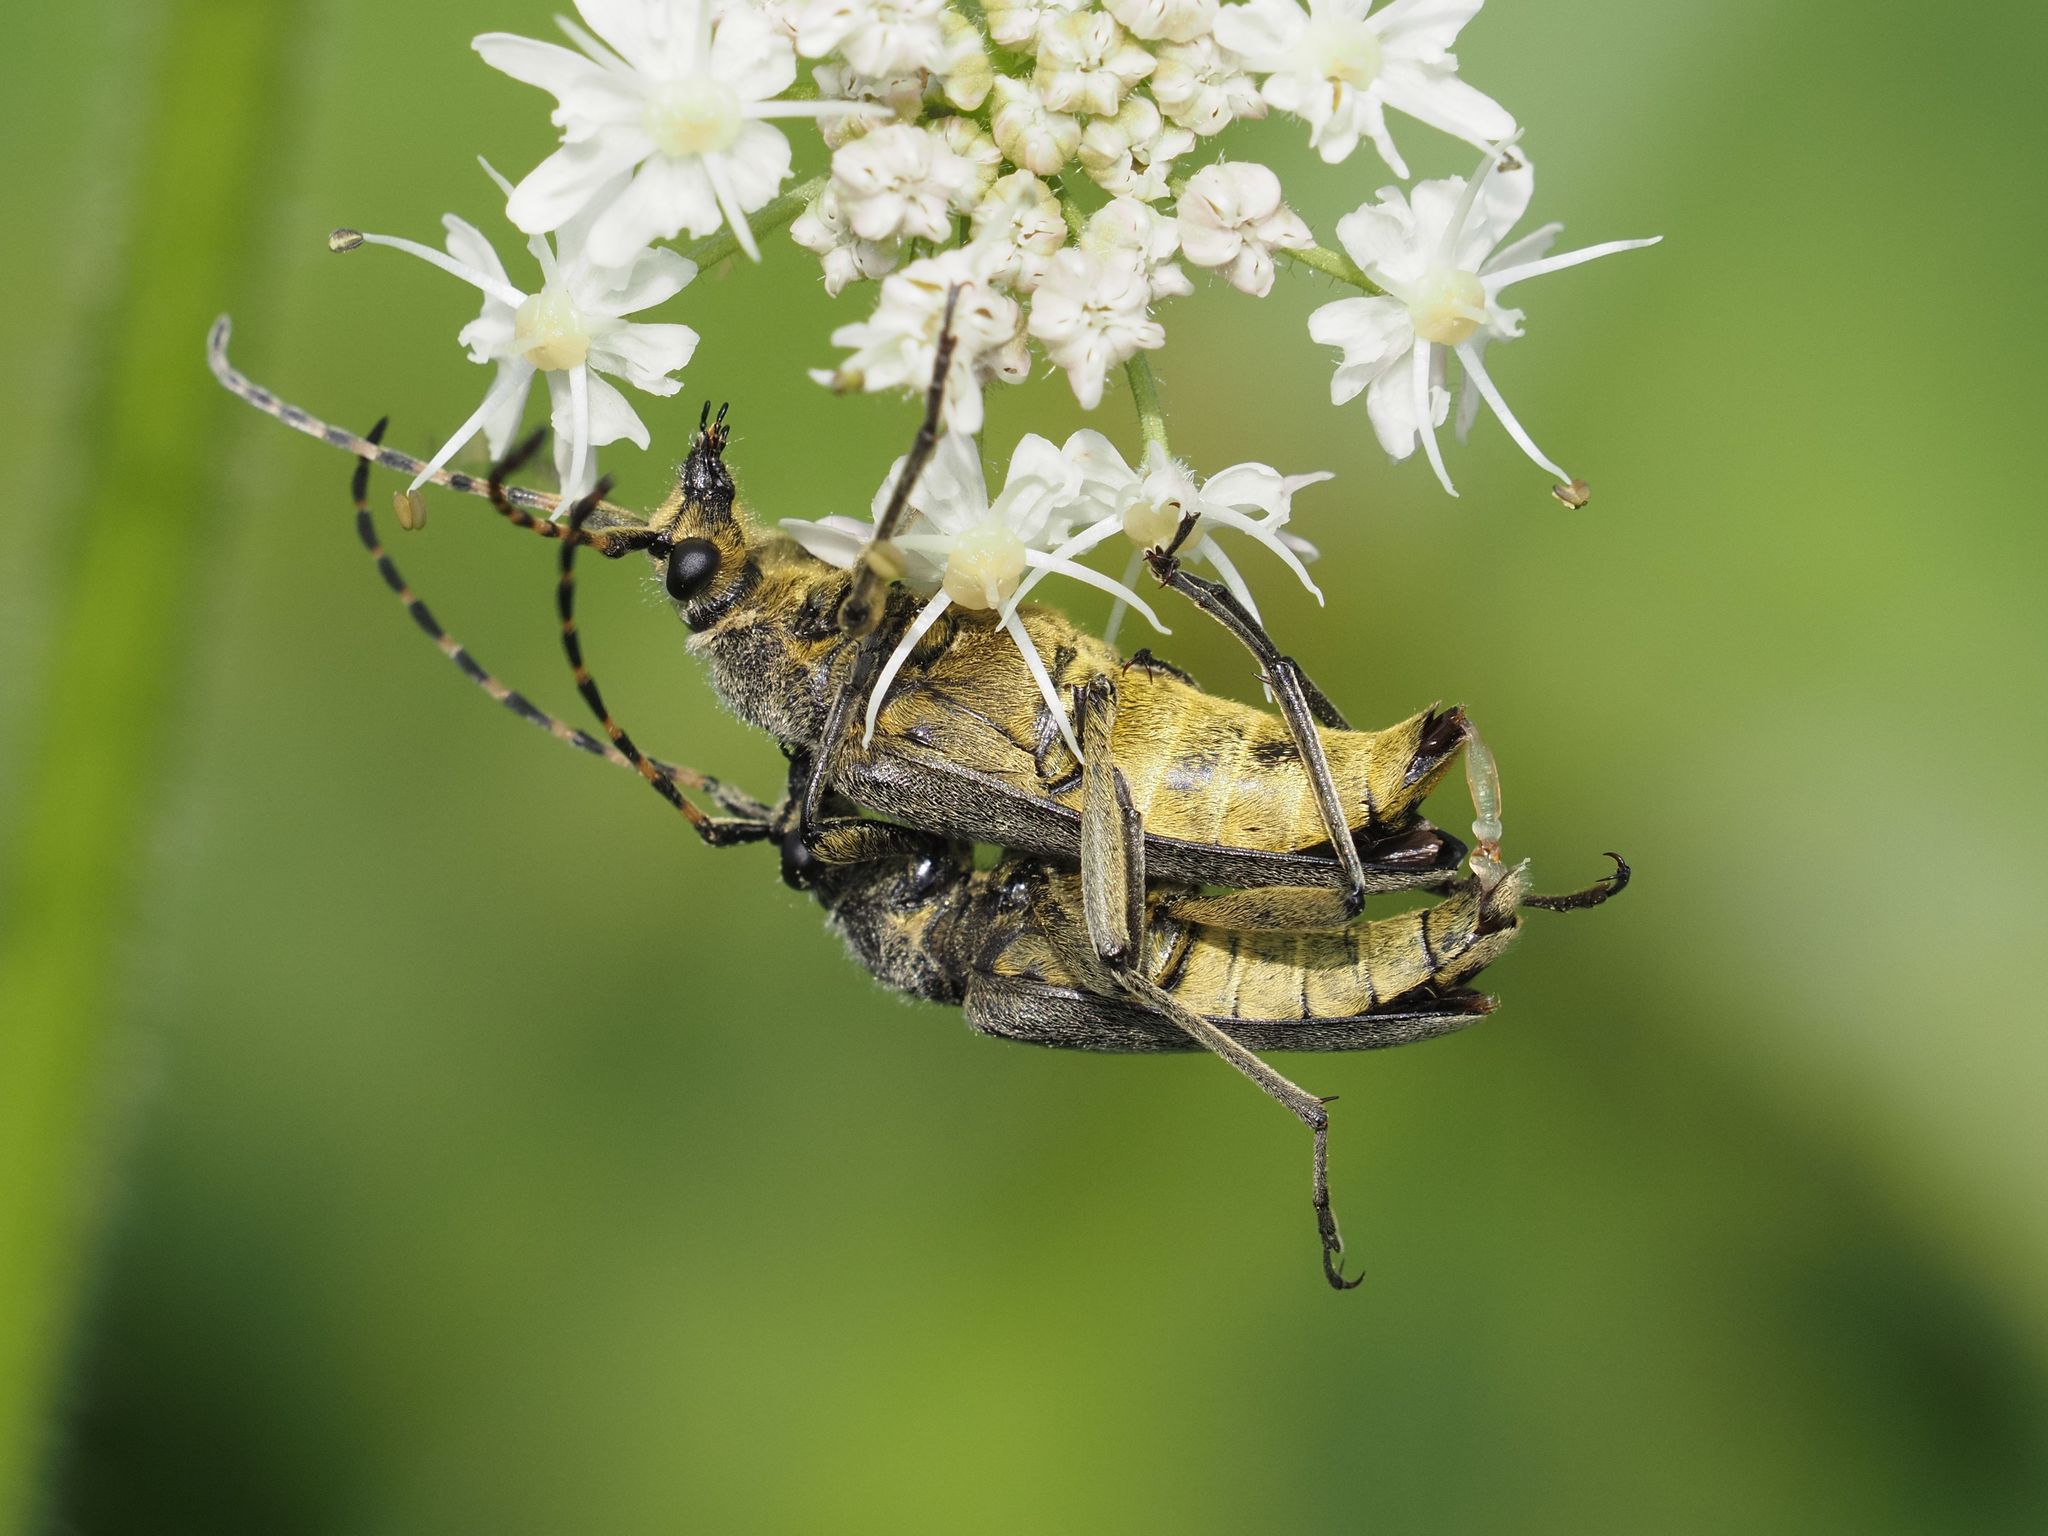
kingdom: Animalia
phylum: Arthropoda
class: Insecta
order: Coleoptera
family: Cerambycidae
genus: Lepturobosca
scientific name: Lepturobosca virens
